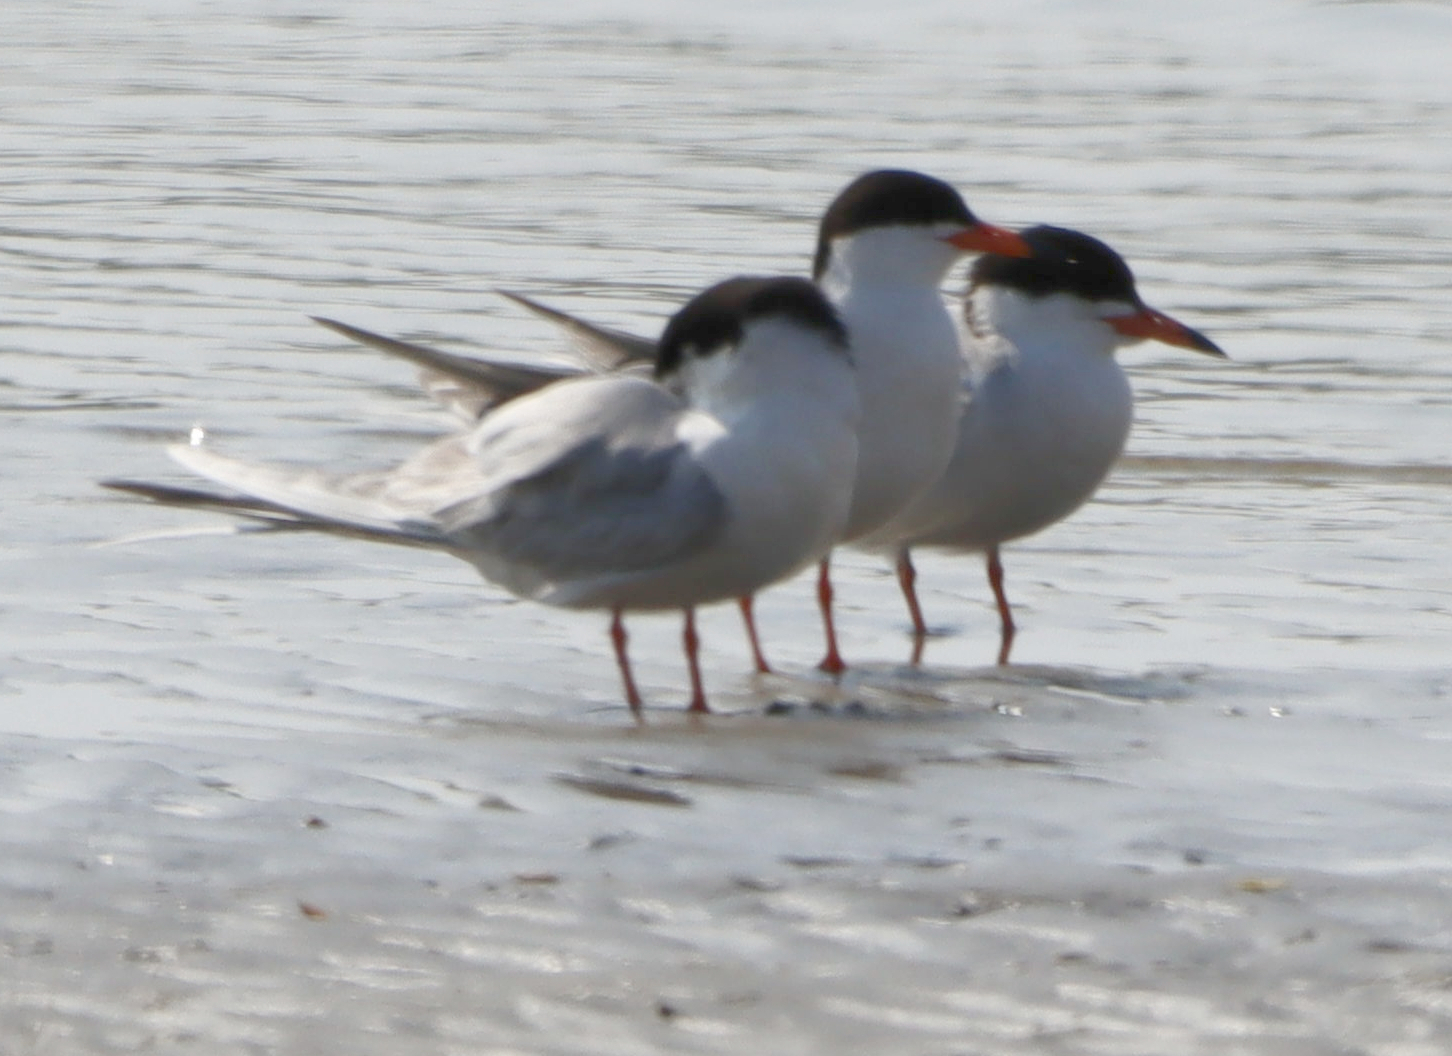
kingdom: Animalia
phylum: Chordata
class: Aves
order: Charadriiformes
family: Laridae
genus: Sterna
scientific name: Sterna forsteri
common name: Forster's tern
